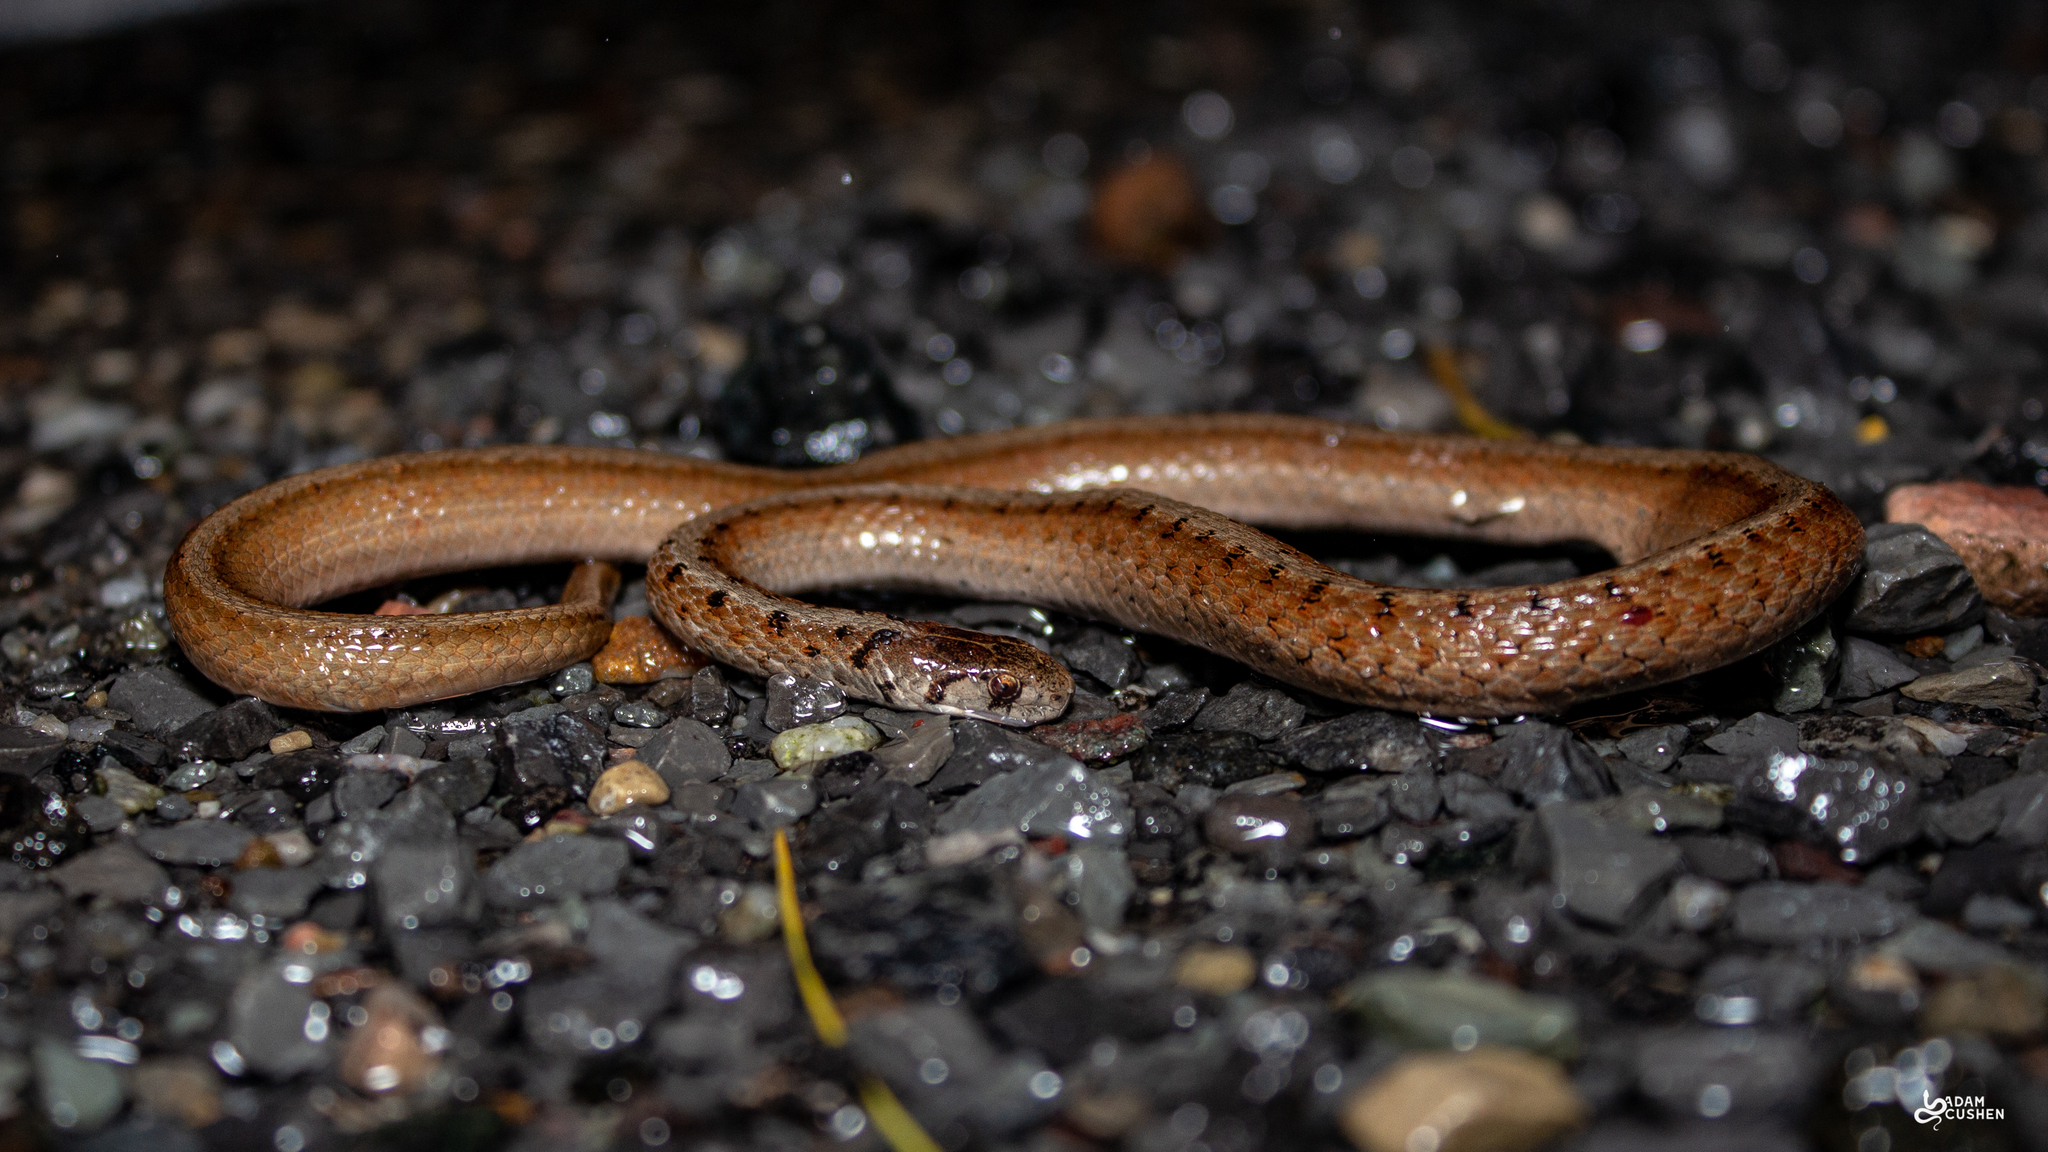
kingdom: Animalia
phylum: Chordata
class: Squamata
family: Colubridae
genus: Storeria
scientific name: Storeria dekayi
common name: (dekay’s) brown snake
